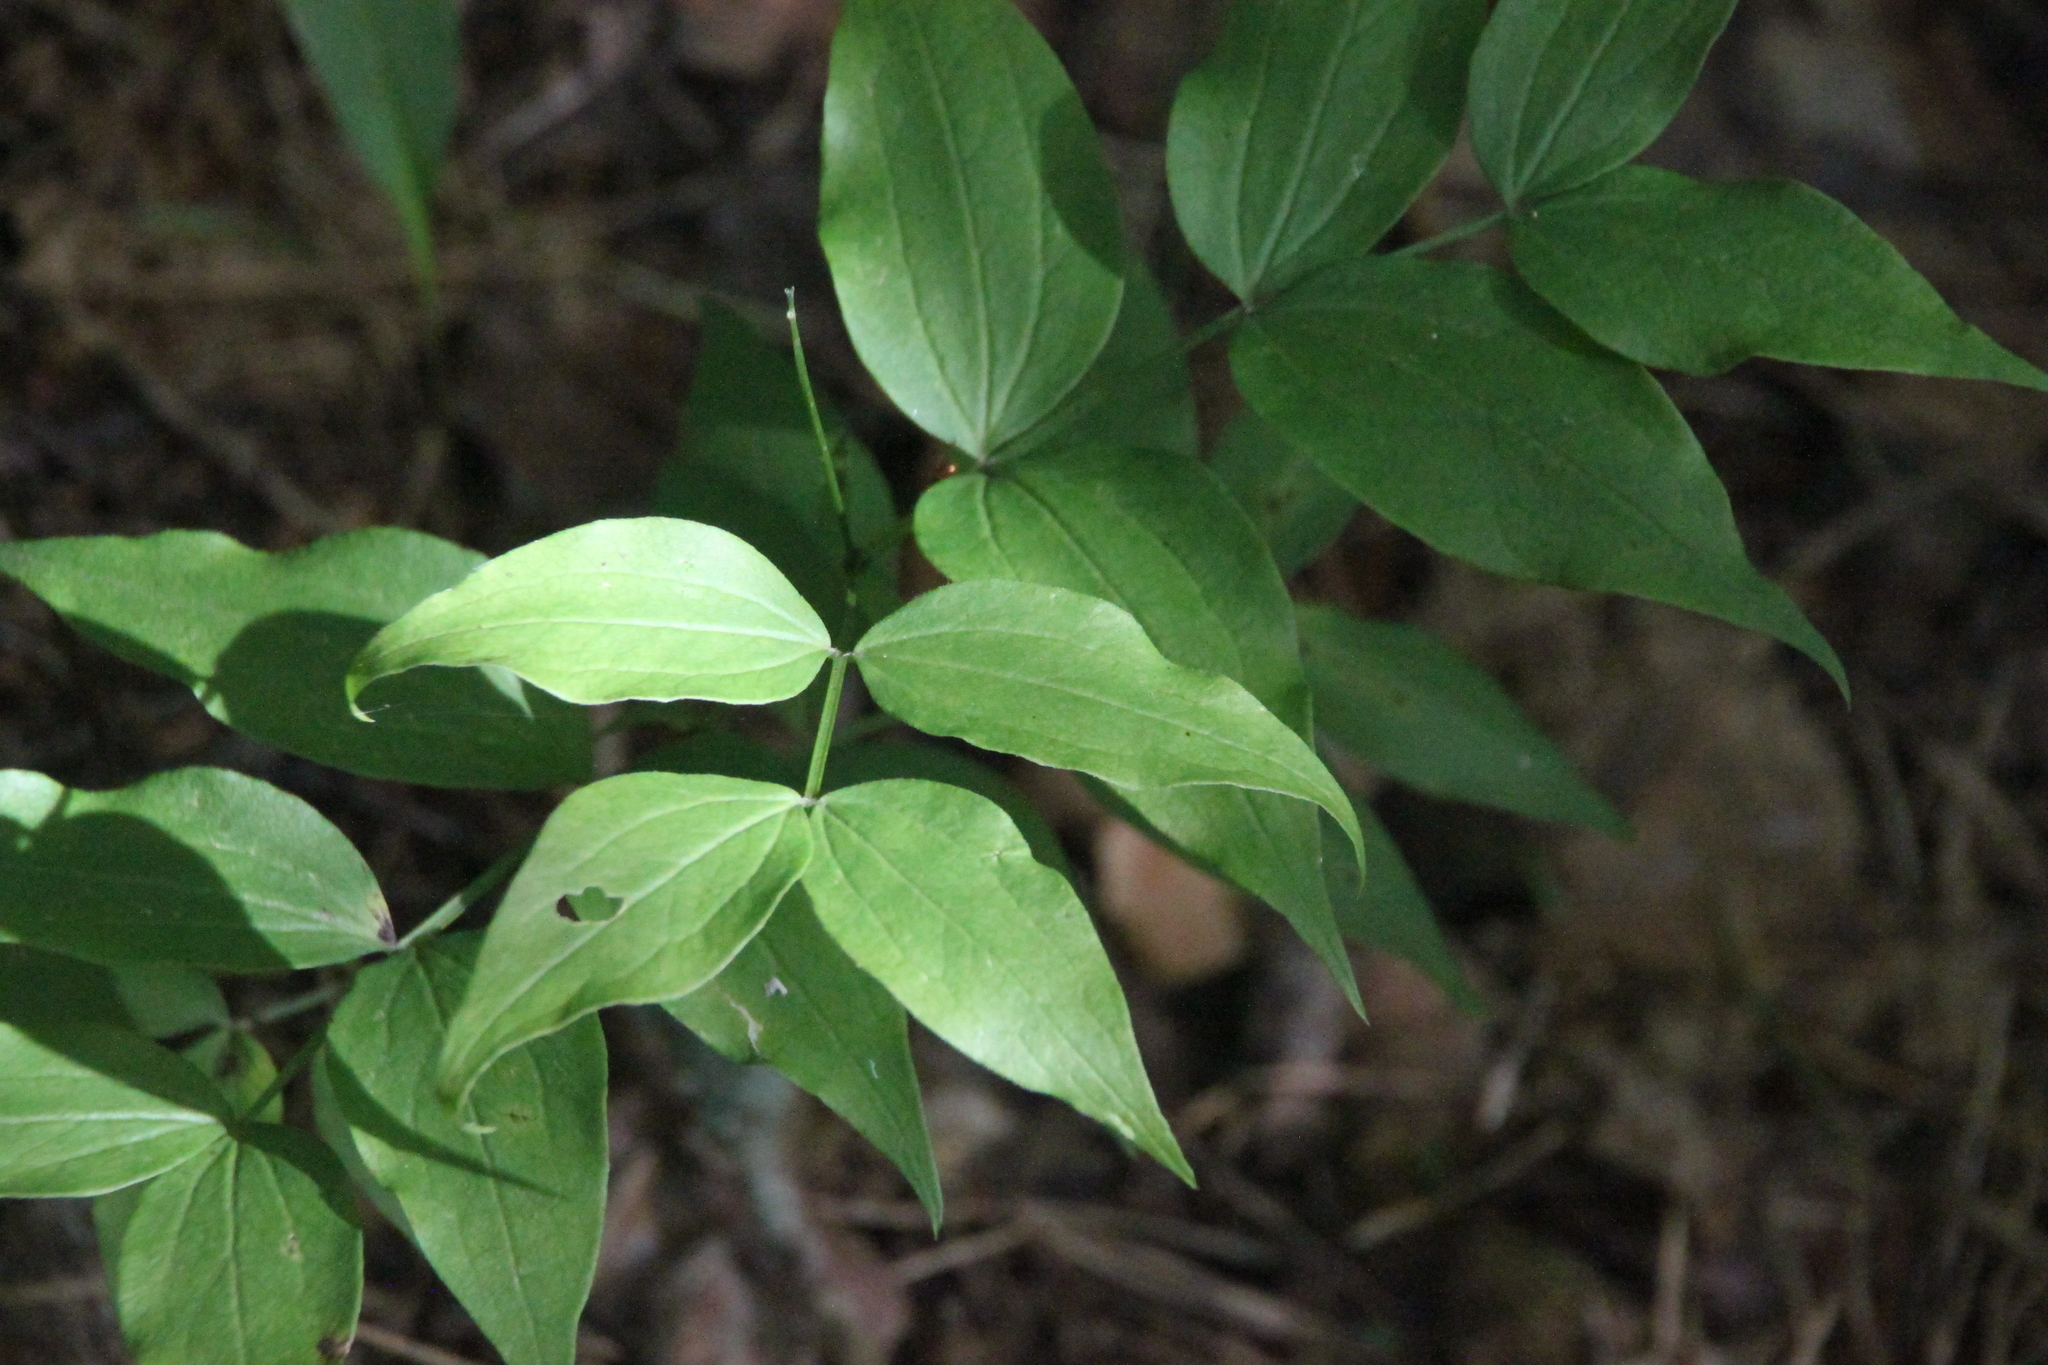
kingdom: Plantae
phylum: Tracheophyta
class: Magnoliopsida
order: Fabales
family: Fabaceae
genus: Lathyrus
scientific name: Lathyrus vernus
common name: Spring pea
